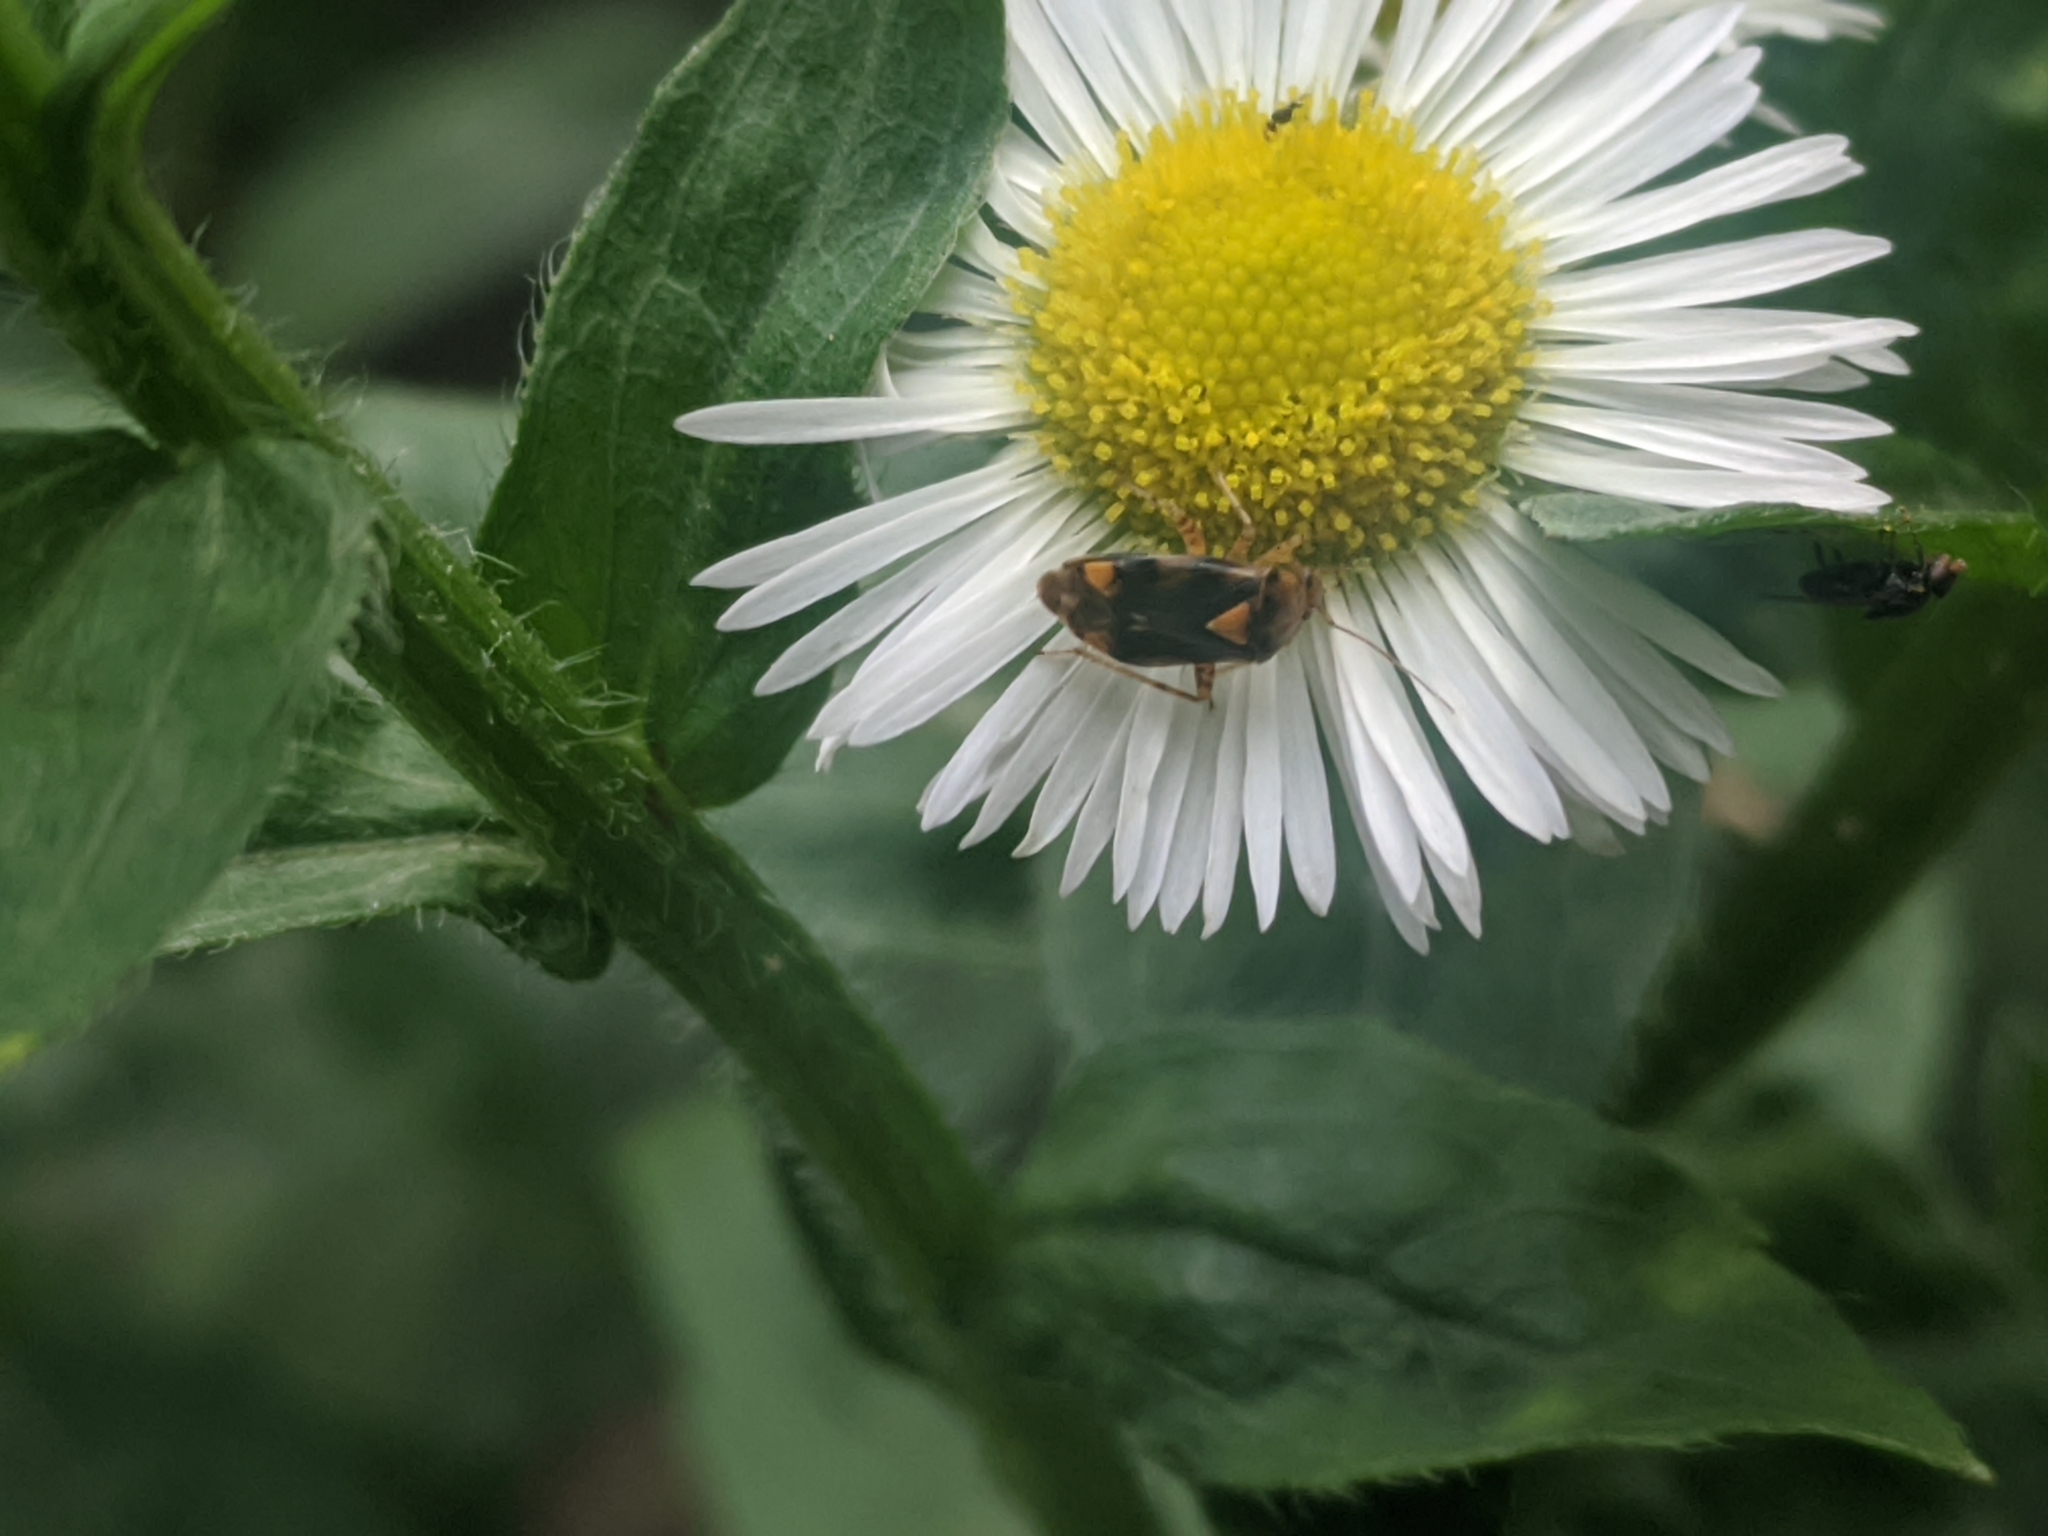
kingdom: Animalia
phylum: Arthropoda
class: Insecta
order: Hemiptera
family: Miridae
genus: Liocoris
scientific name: Liocoris tripustulatus
